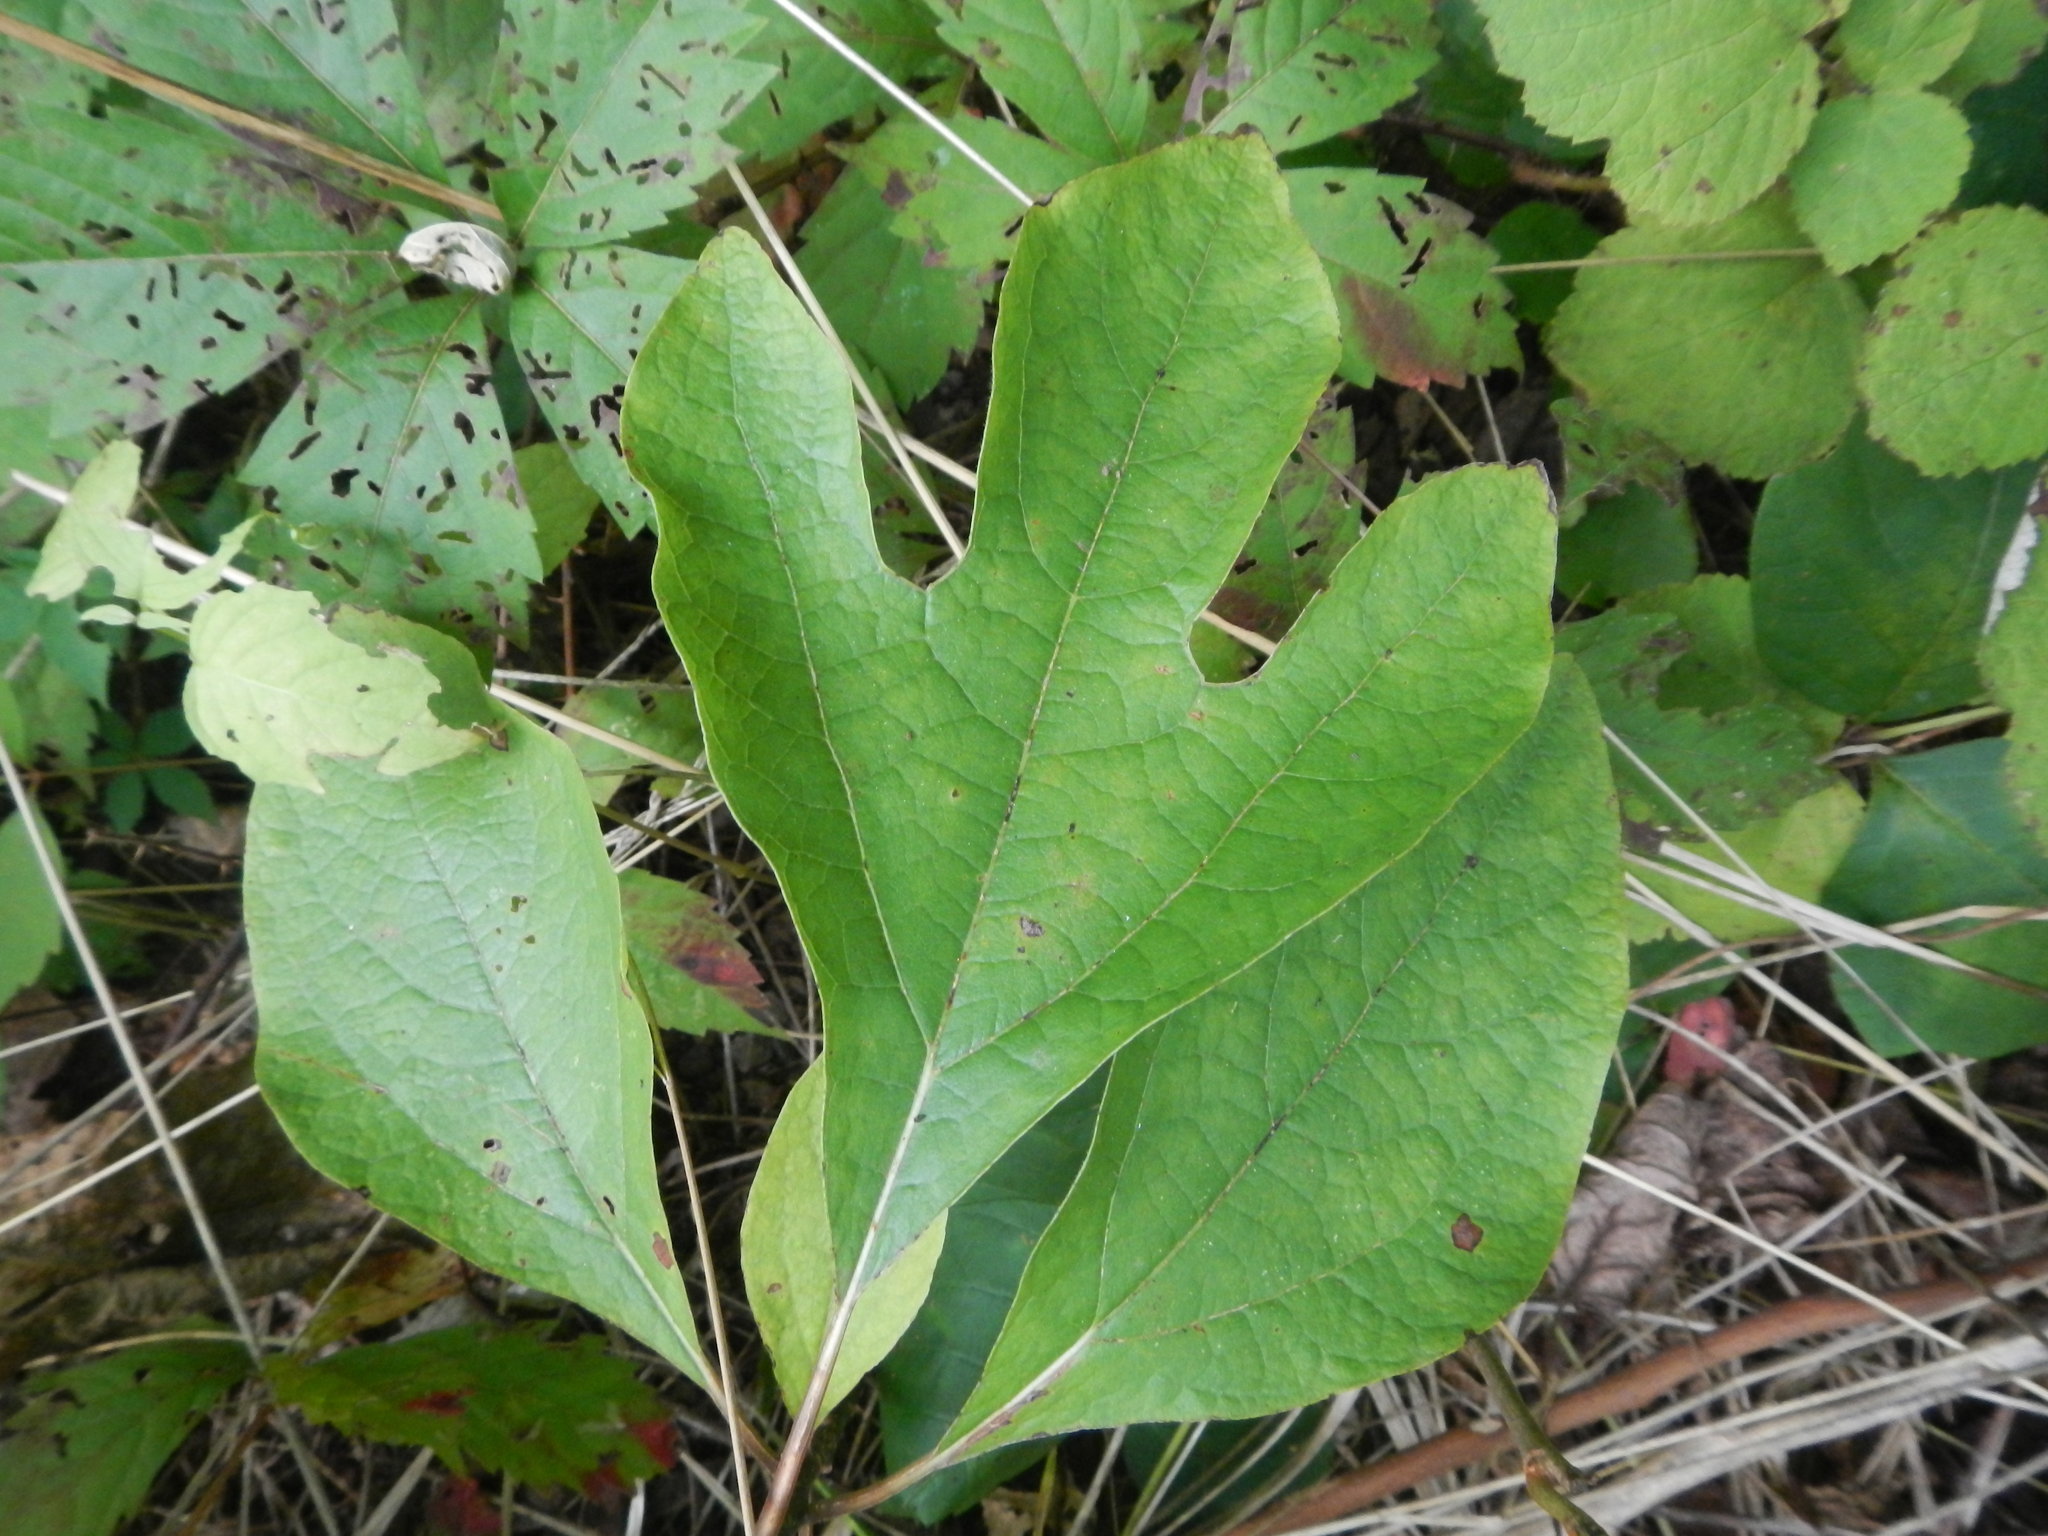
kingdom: Plantae
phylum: Tracheophyta
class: Magnoliopsida
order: Laurales
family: Lauraceae
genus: Sassafras
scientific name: Sassafras albidum
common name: Sassafras
